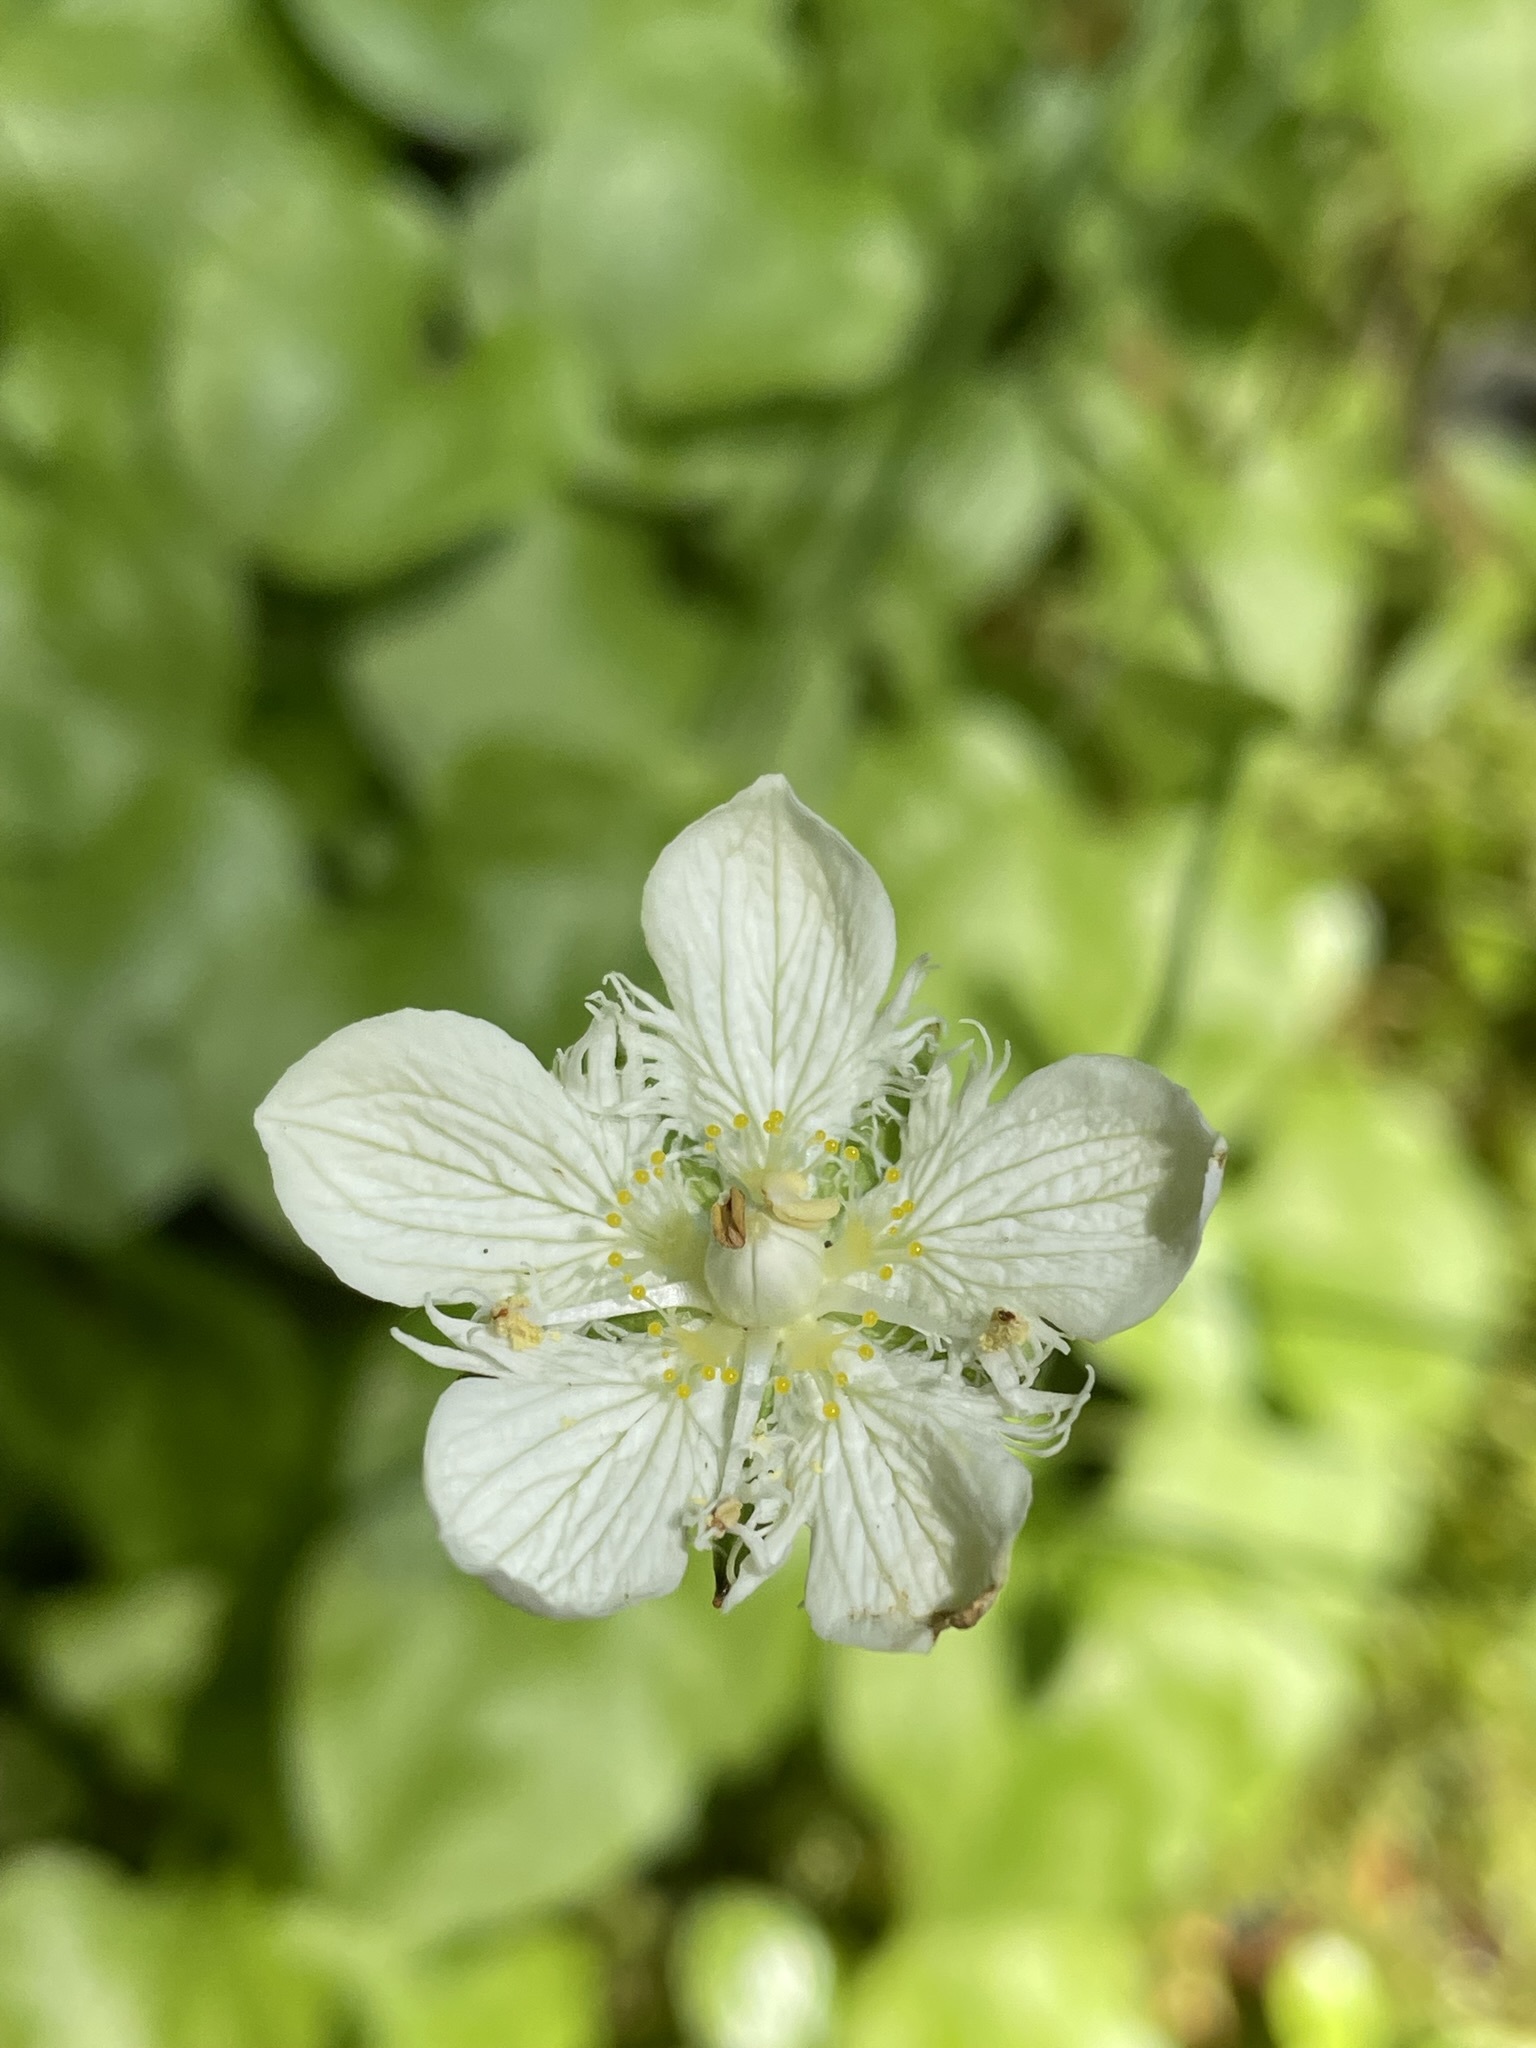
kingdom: Plantae
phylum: Tracheophyta
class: Magnoliopsida
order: Celastrales
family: Parnassiaceae
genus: Parnassia
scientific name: Parnassia cirrata
